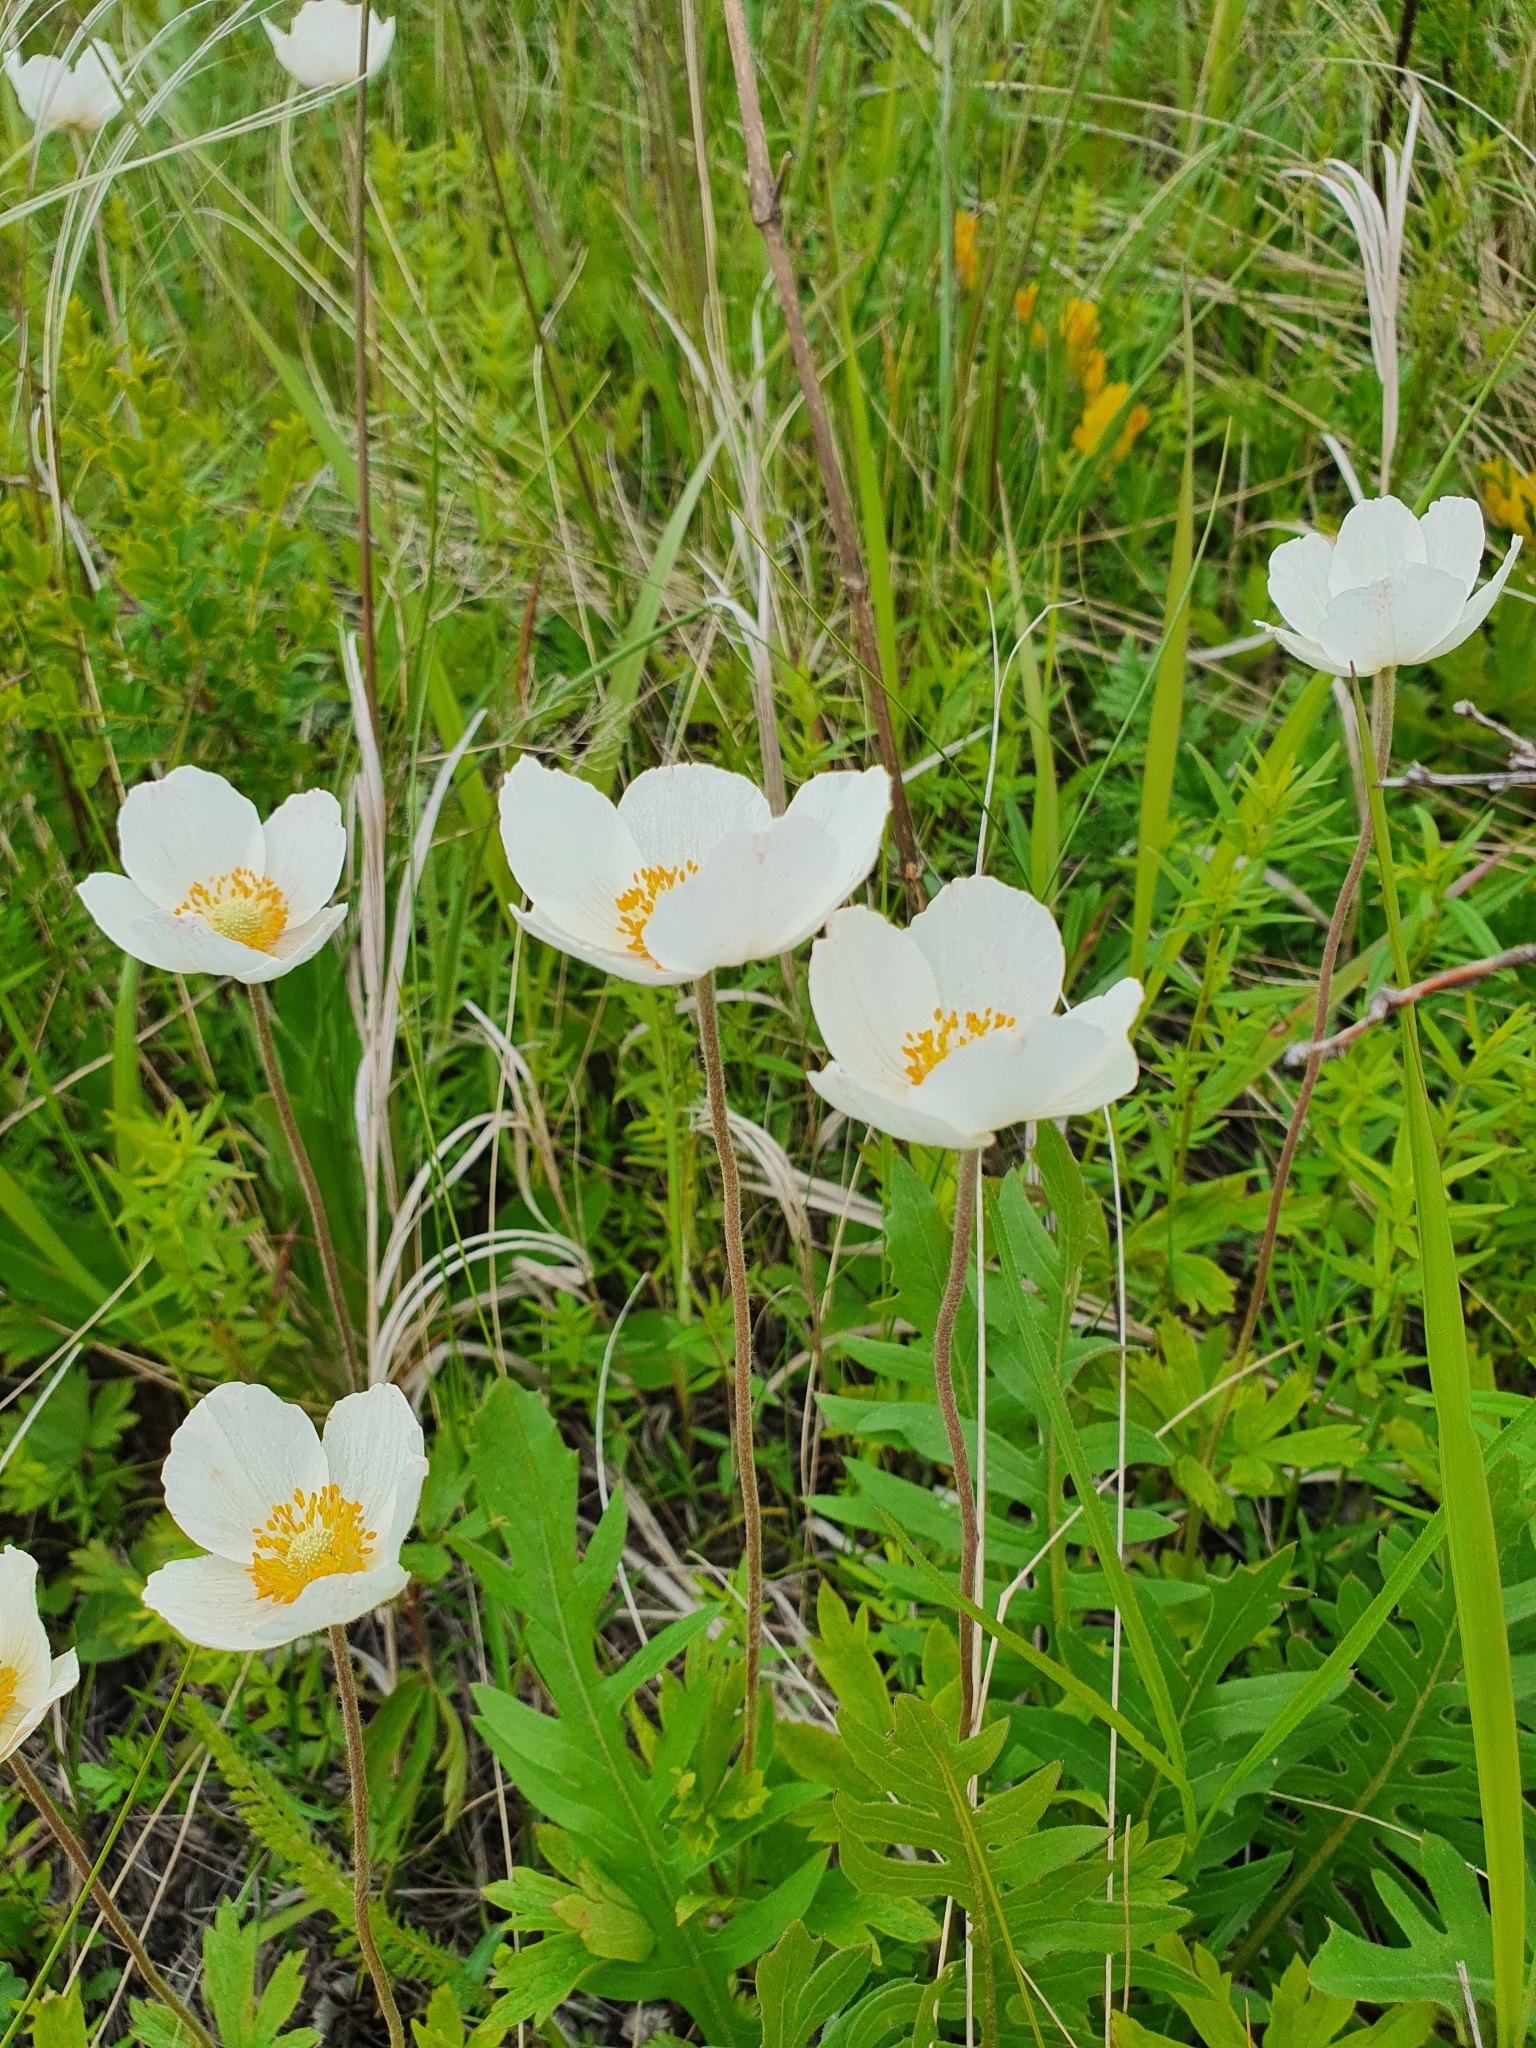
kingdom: Plantae
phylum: Tracheophyta
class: Magnoliopsida
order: Ranunculales
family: Ranunculaceae
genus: Anemone
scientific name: Anemone sylvestris
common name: Snowdrop anemone
